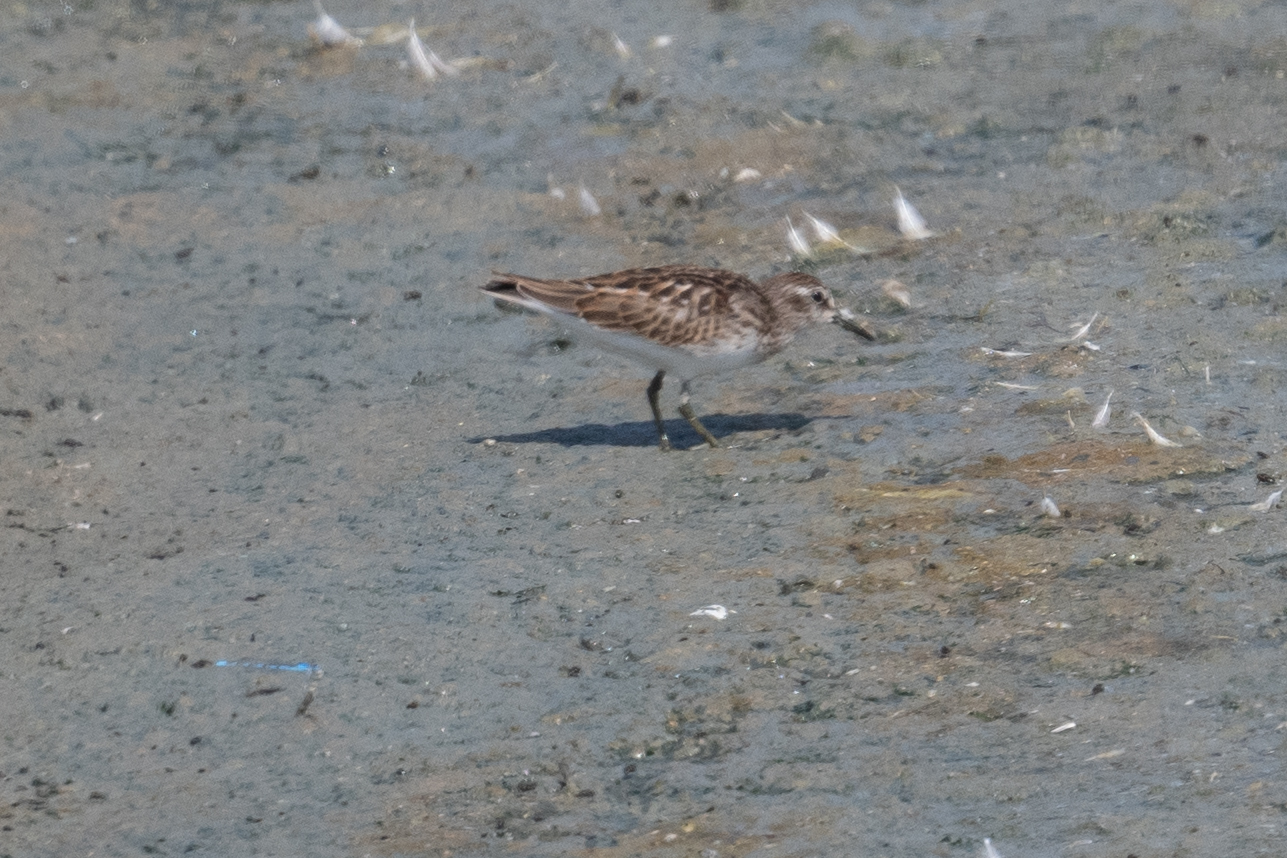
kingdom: Animalia
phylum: Chordata
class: Aves
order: Charadriiformes
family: Scolopacidae
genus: Calidris
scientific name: Calidris minutilla
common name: Least sandpiper
